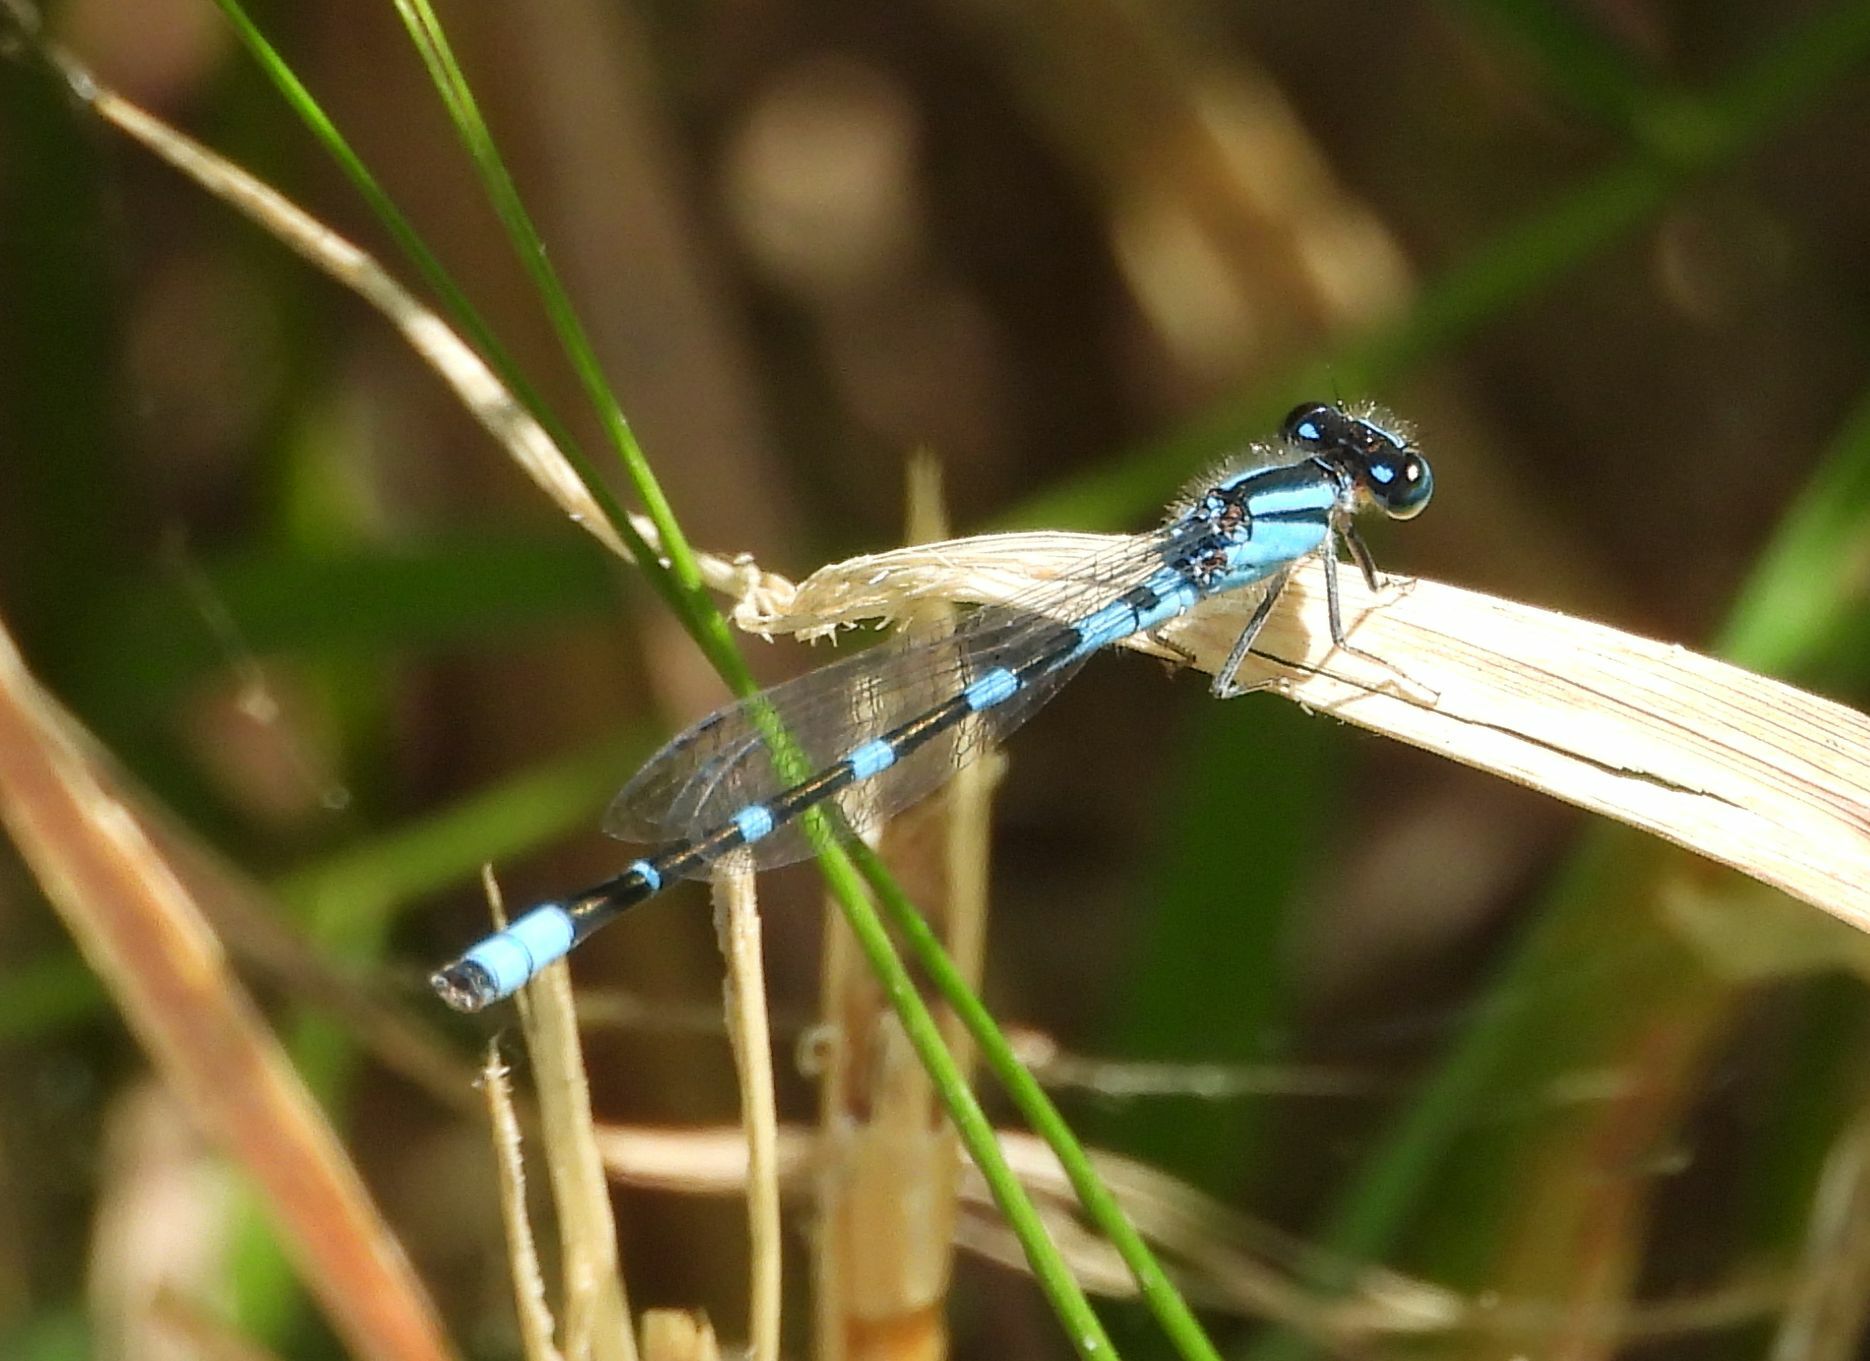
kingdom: Animalia
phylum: Arthropoda
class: Insecta
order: Odonata
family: Coenagrionidae
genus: Enallagma
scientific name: Enallagma carunculatum
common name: Tule bluet
